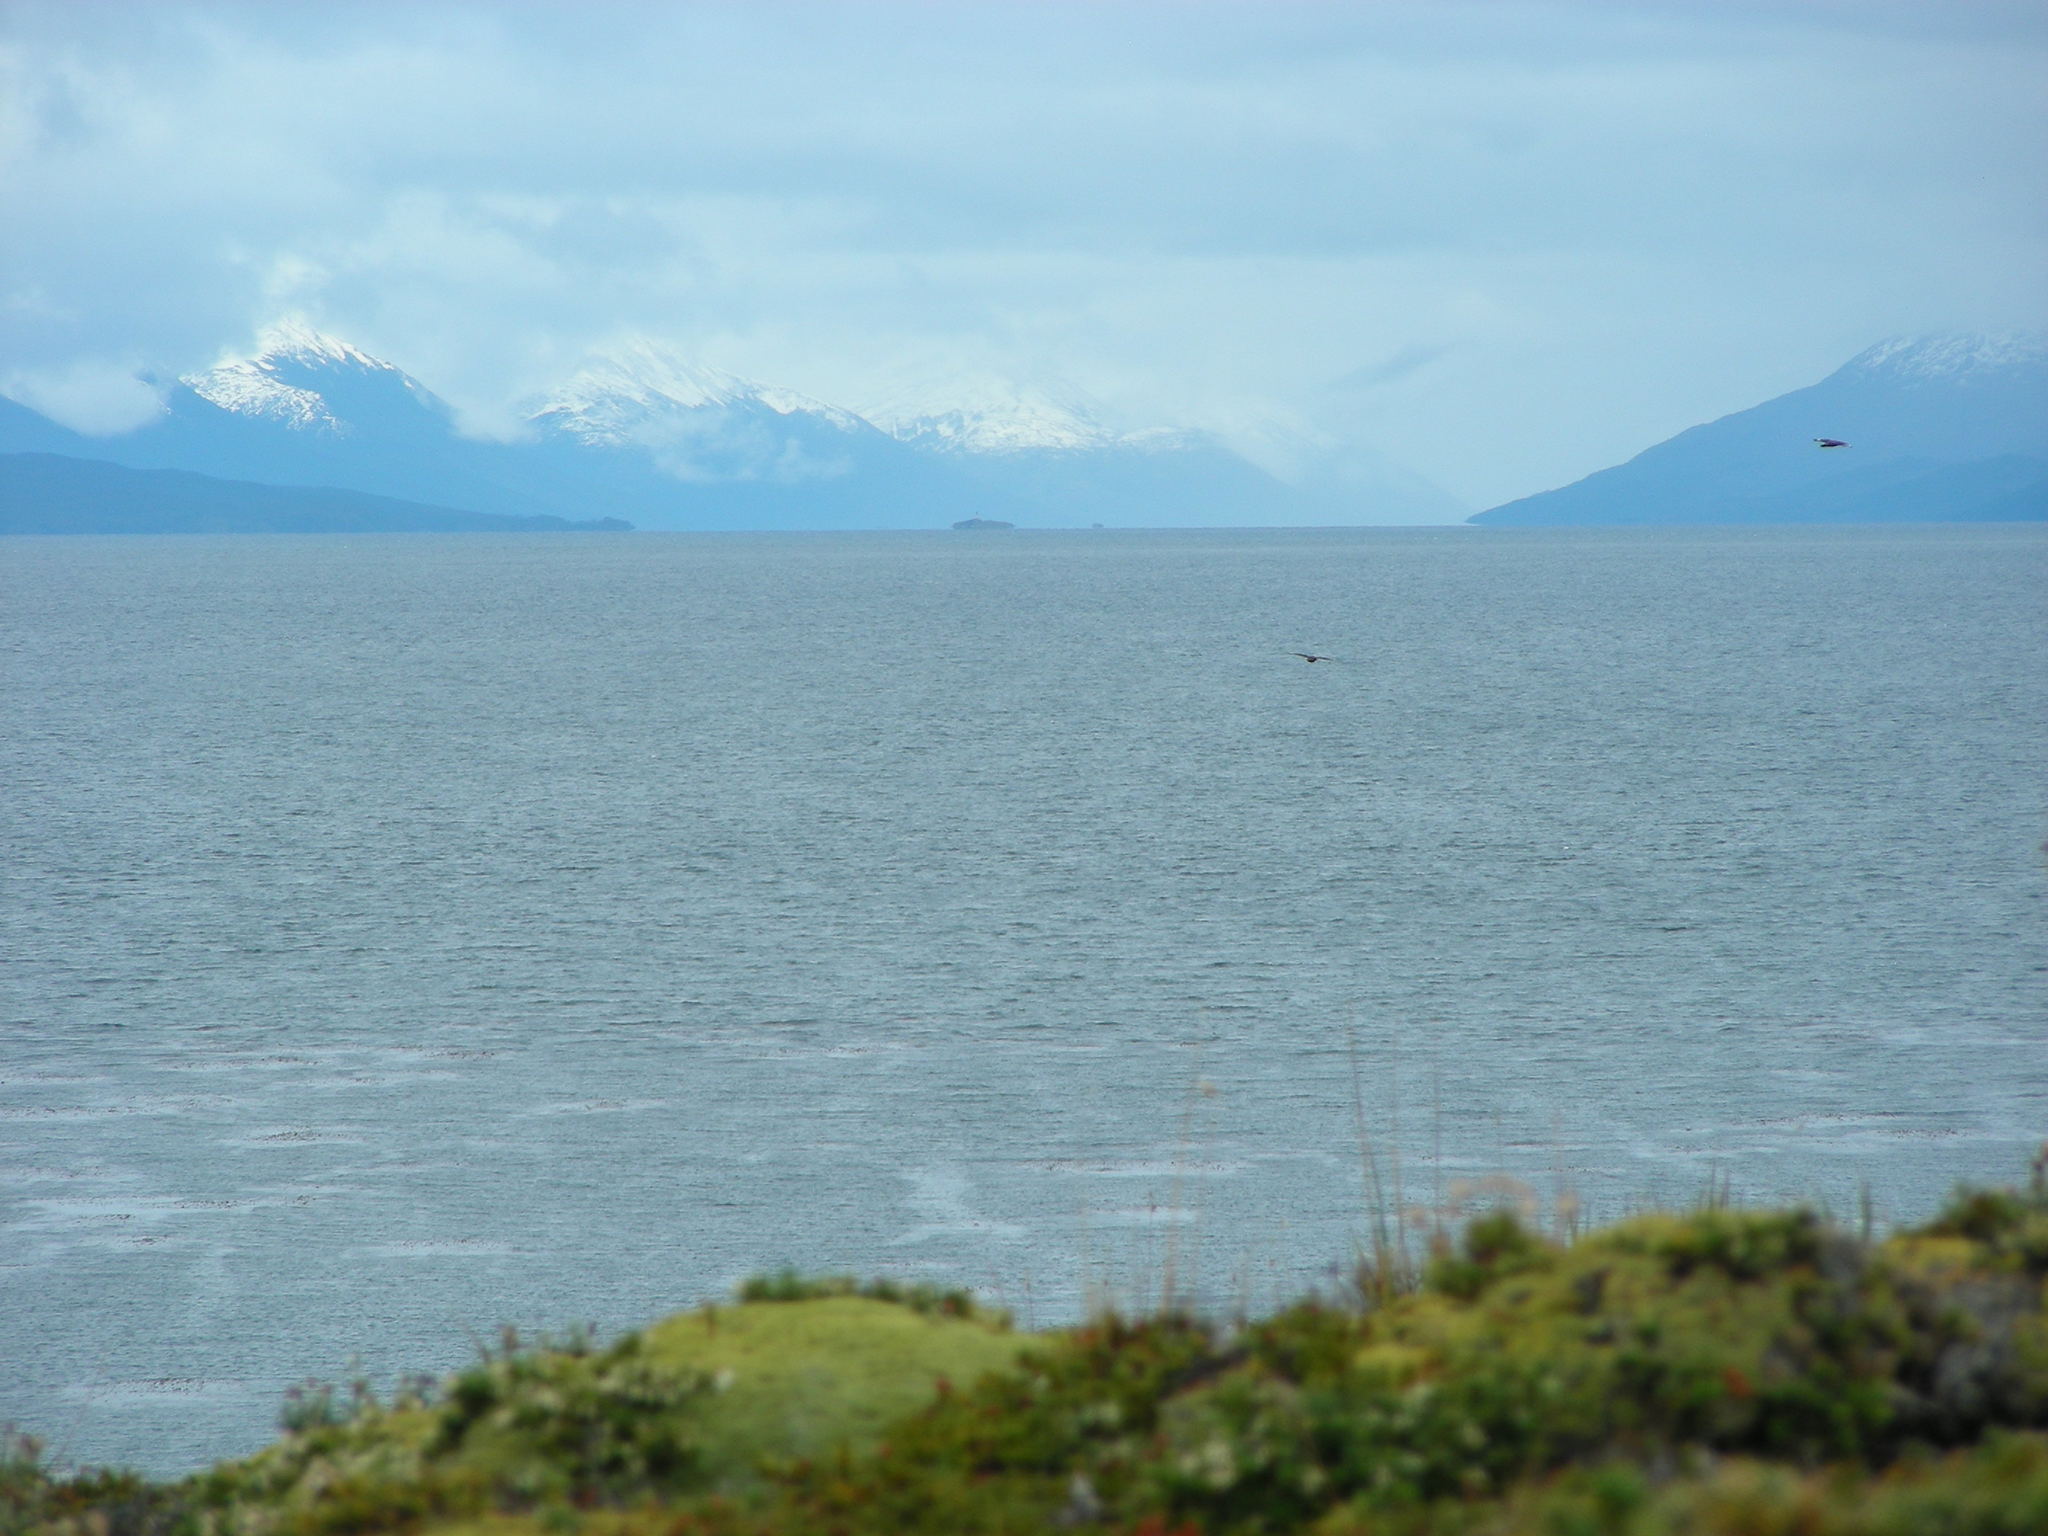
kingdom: Animalia
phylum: Chordata
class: Aves
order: Charadriiformes
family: Stercorariidae
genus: Stercorarius
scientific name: Stercorarius chilensis
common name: Chilean skua
